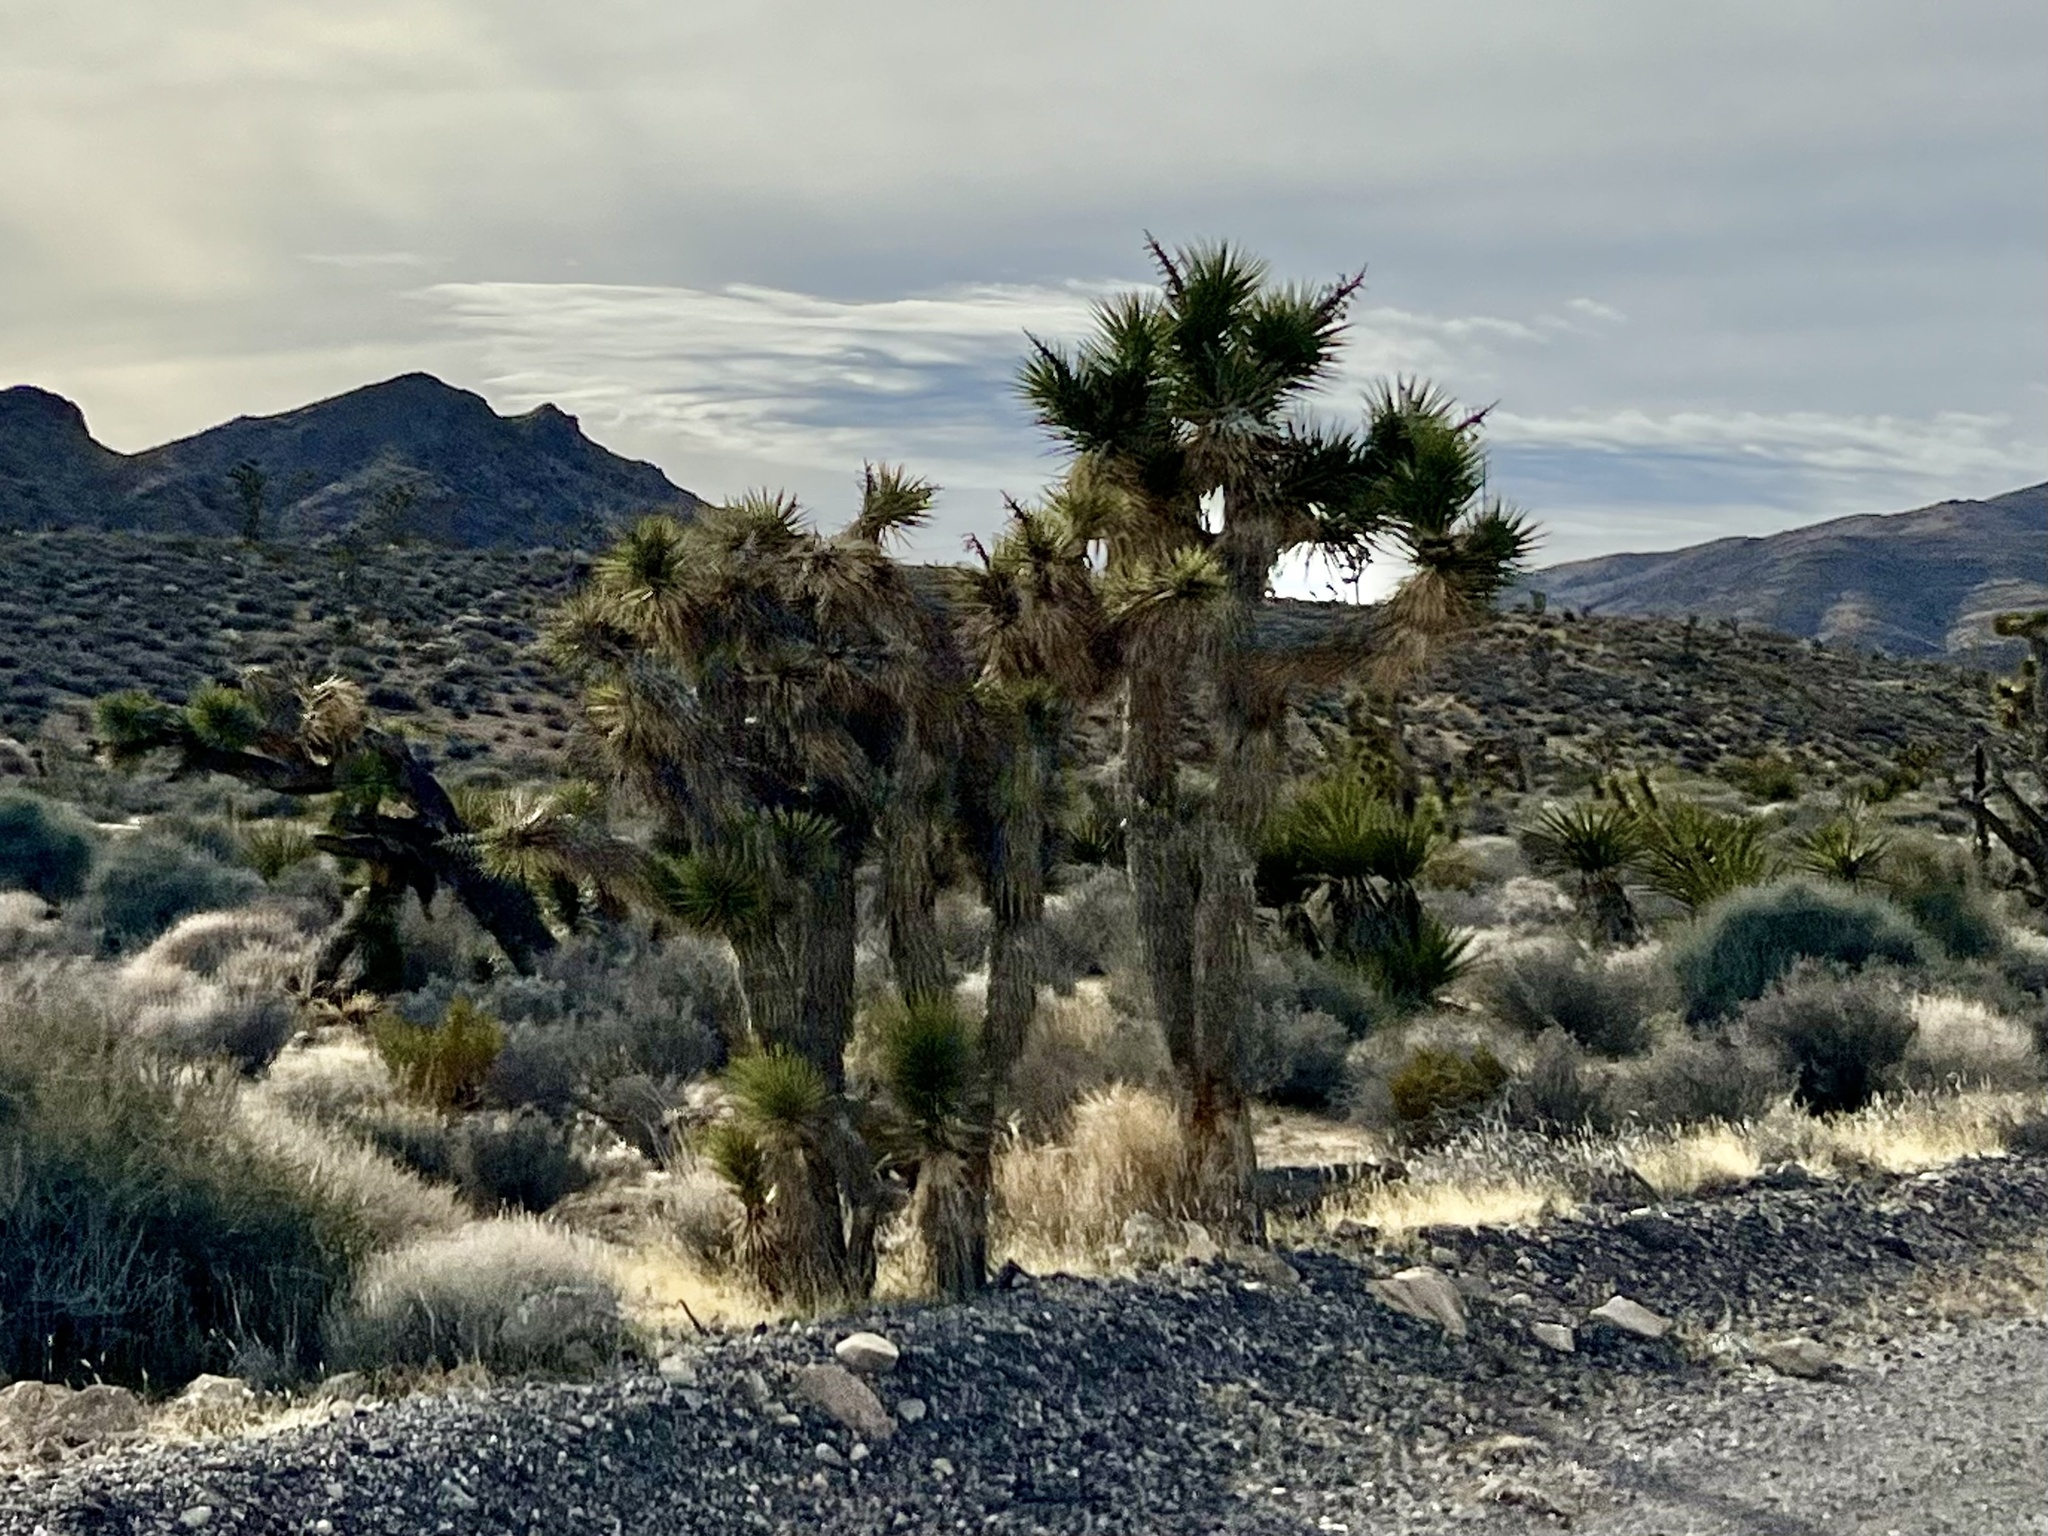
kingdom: Plantae
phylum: Tracheophyta
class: Liliopsida
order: Asparagales
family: Asparagaceae
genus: Yucca
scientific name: Yucca brevifolia
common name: Joshua tree
